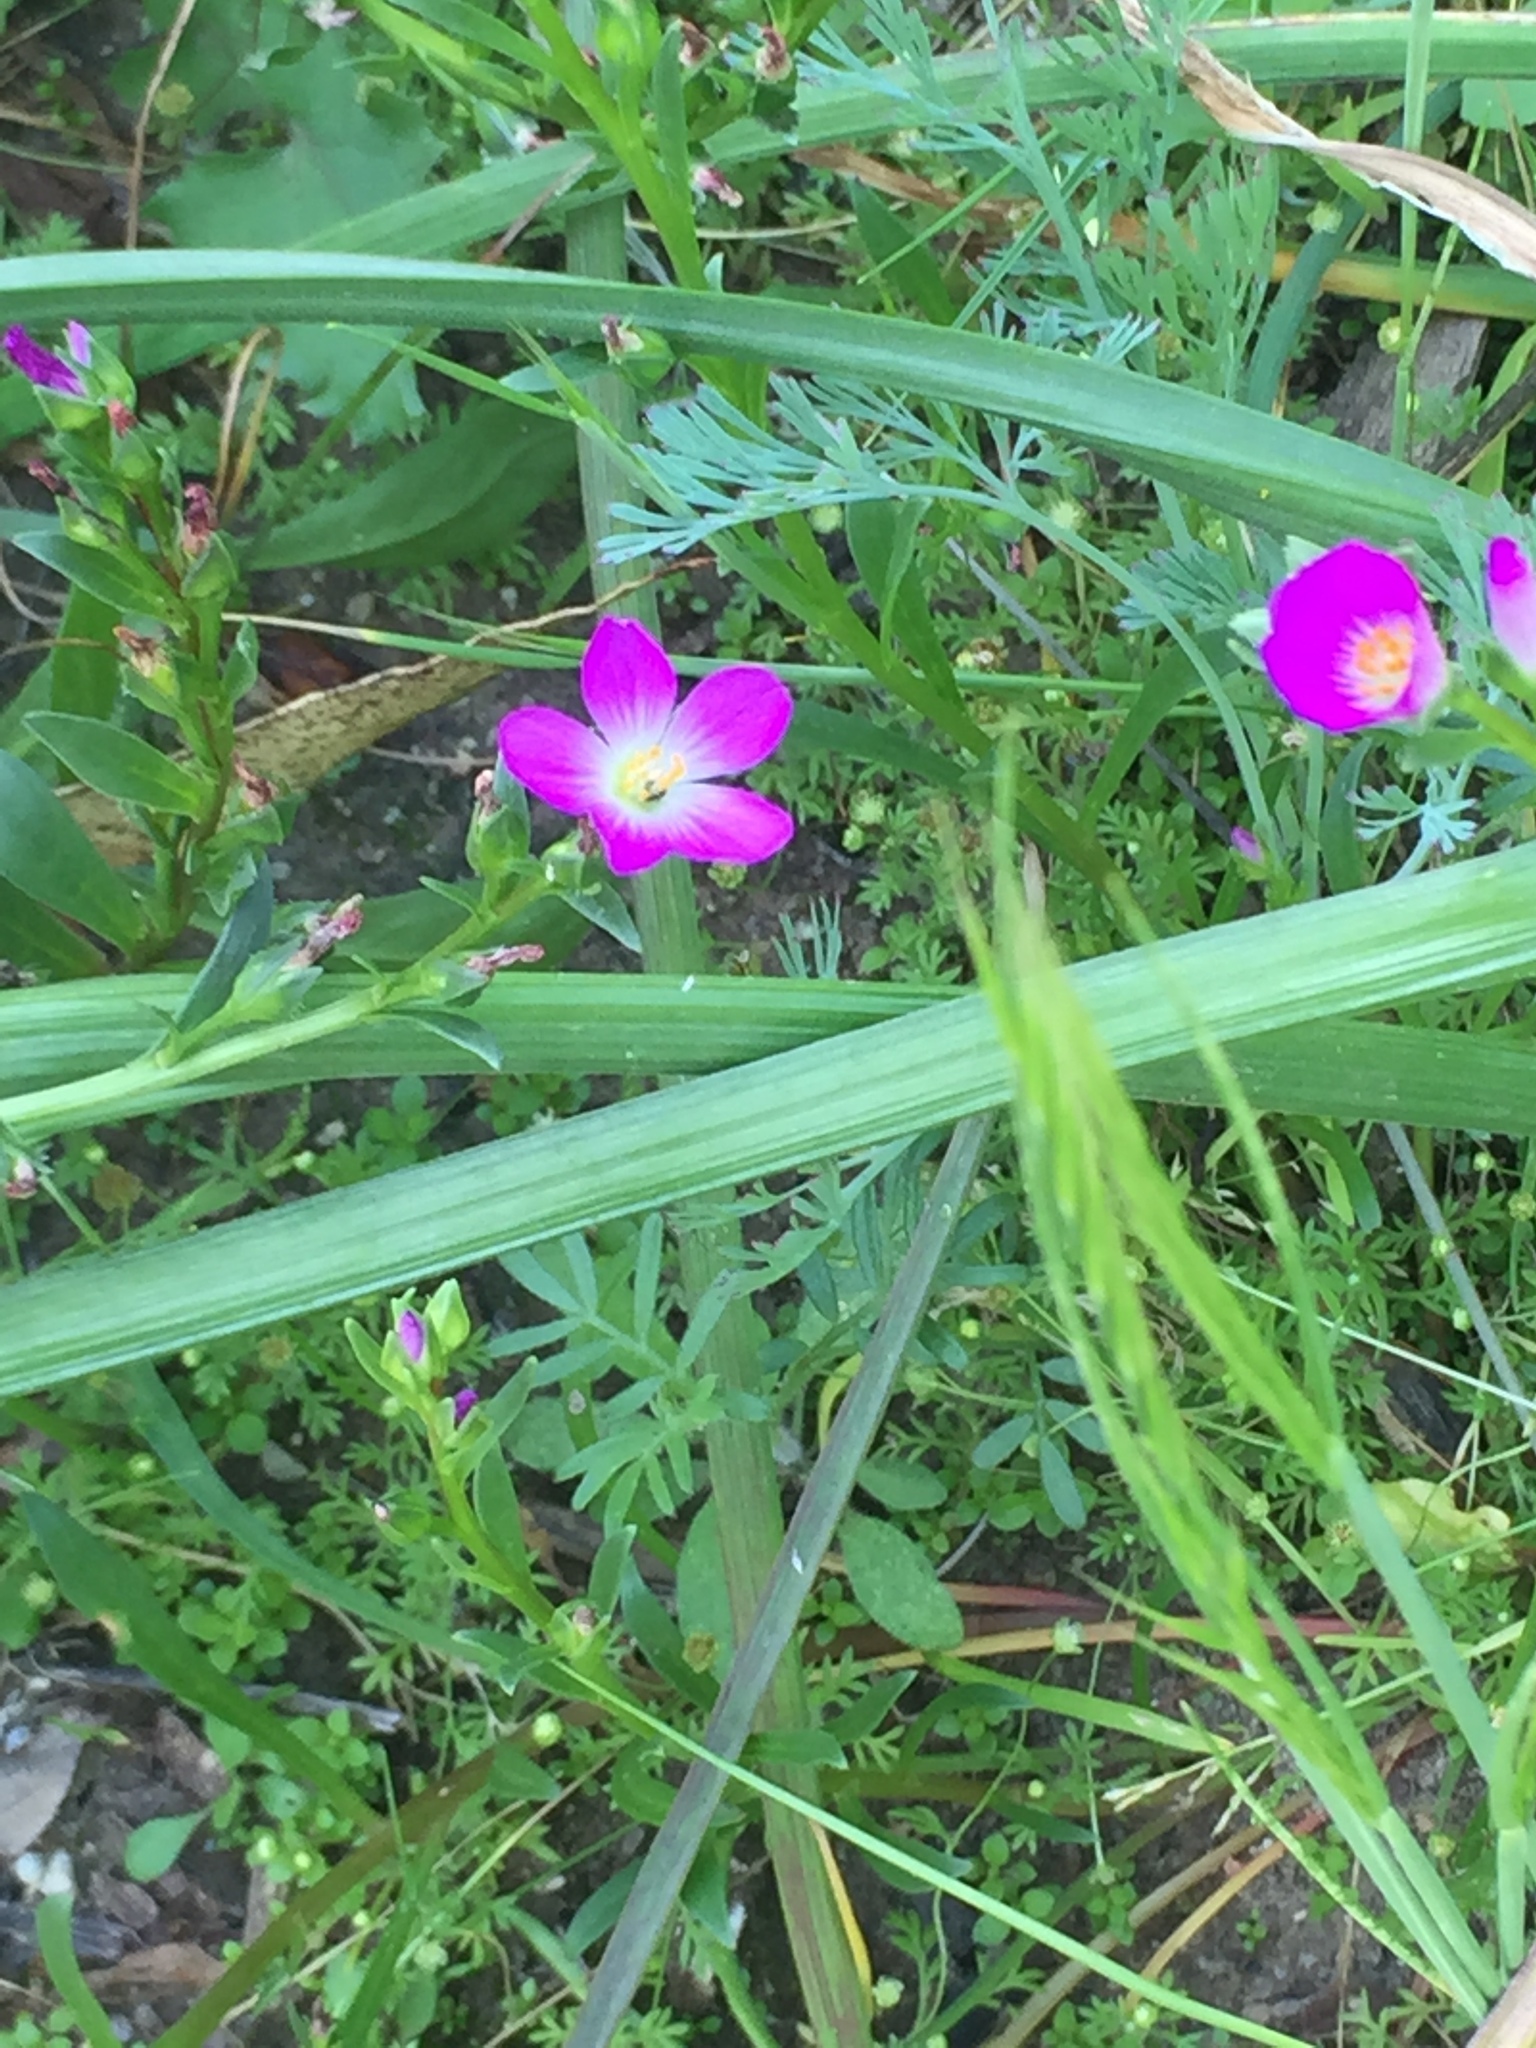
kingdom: Plantae
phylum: Tracheophyta
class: Magnoliopsida
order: Caryophyllales
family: Montiaceae
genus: Calandrinia
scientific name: Calandrinia menziesii
